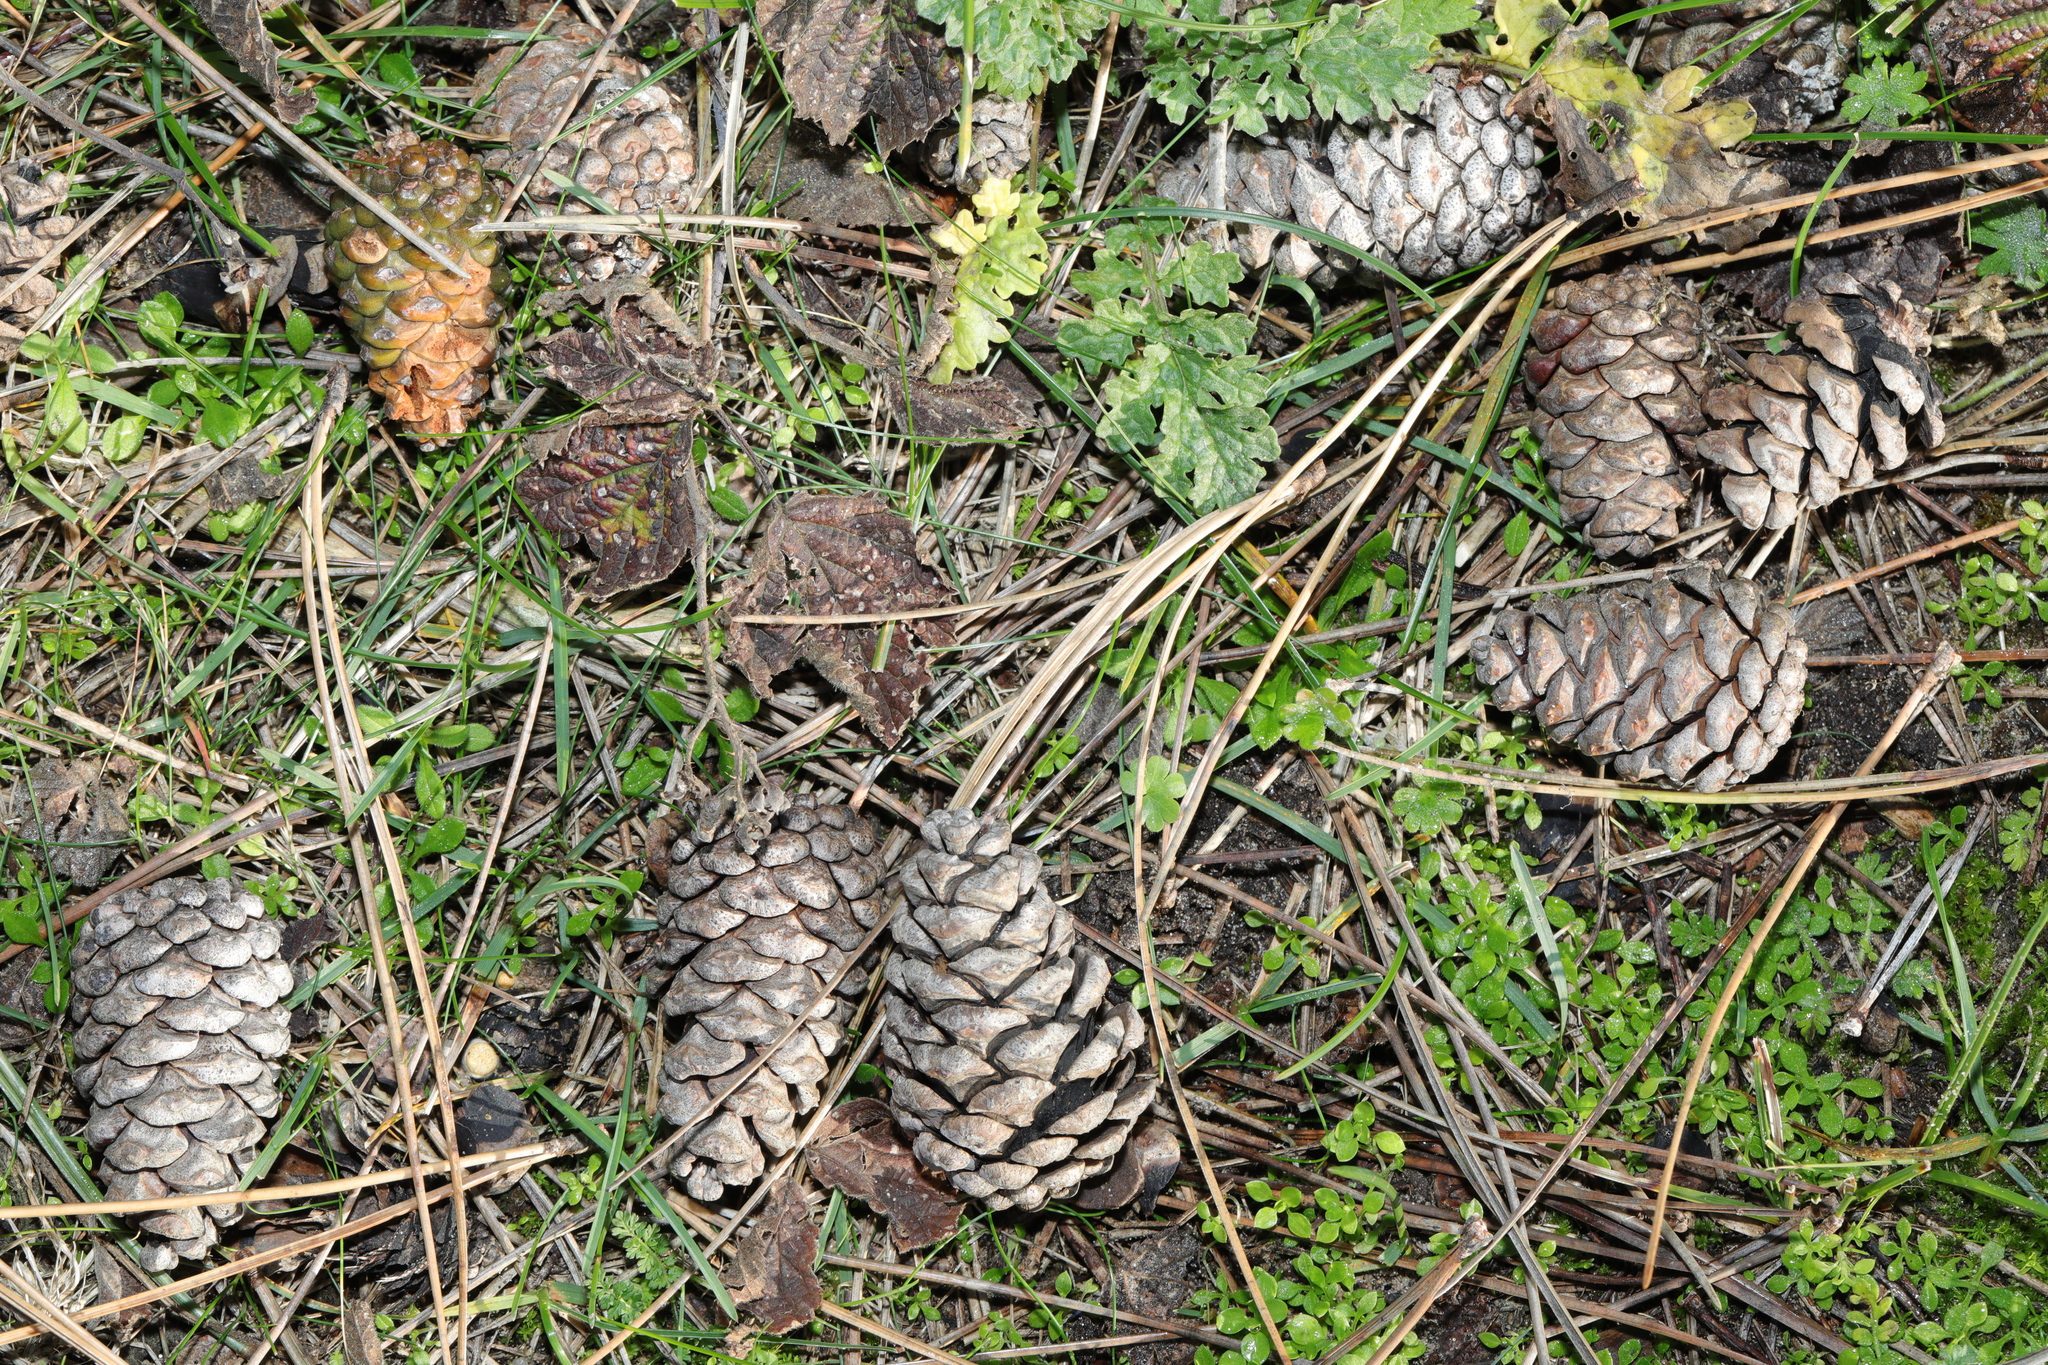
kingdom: Plantae
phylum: Tracheophyta
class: Pinopsida
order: Pinales
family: Pinaceae
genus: Pinus
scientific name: Pinus sylvestris
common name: Scots pine
